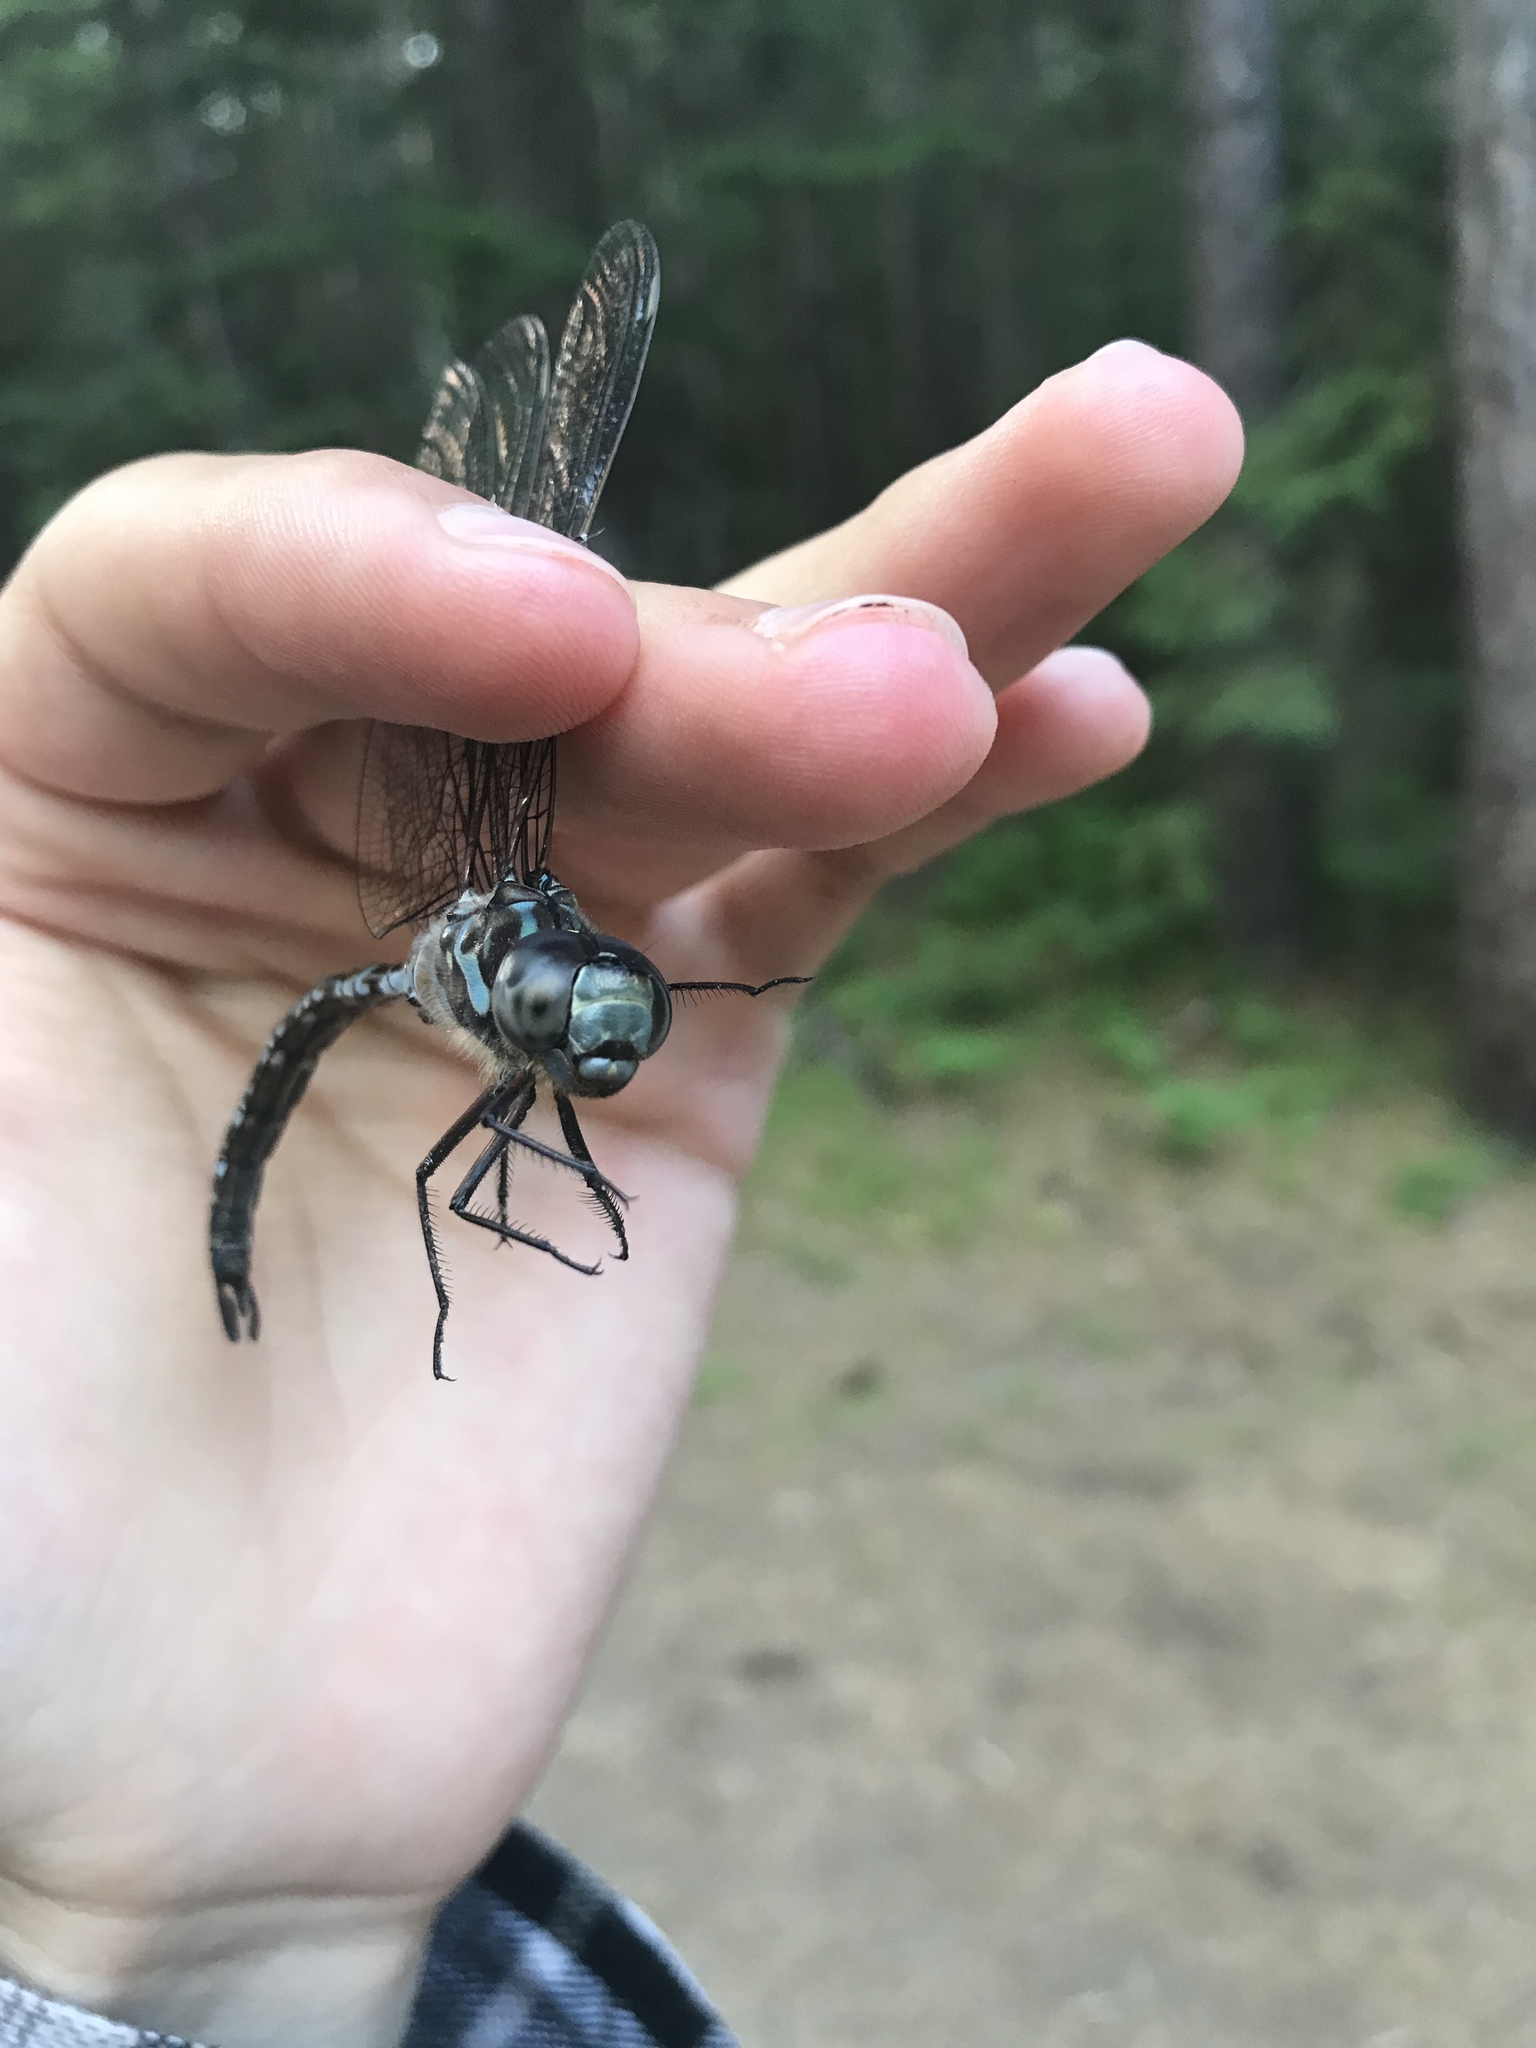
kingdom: Animalia
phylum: Arthropoda
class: Insecta
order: Odonata
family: Aeshnidae
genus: Aeshna
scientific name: Aeshna canadensis
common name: Canada darner
